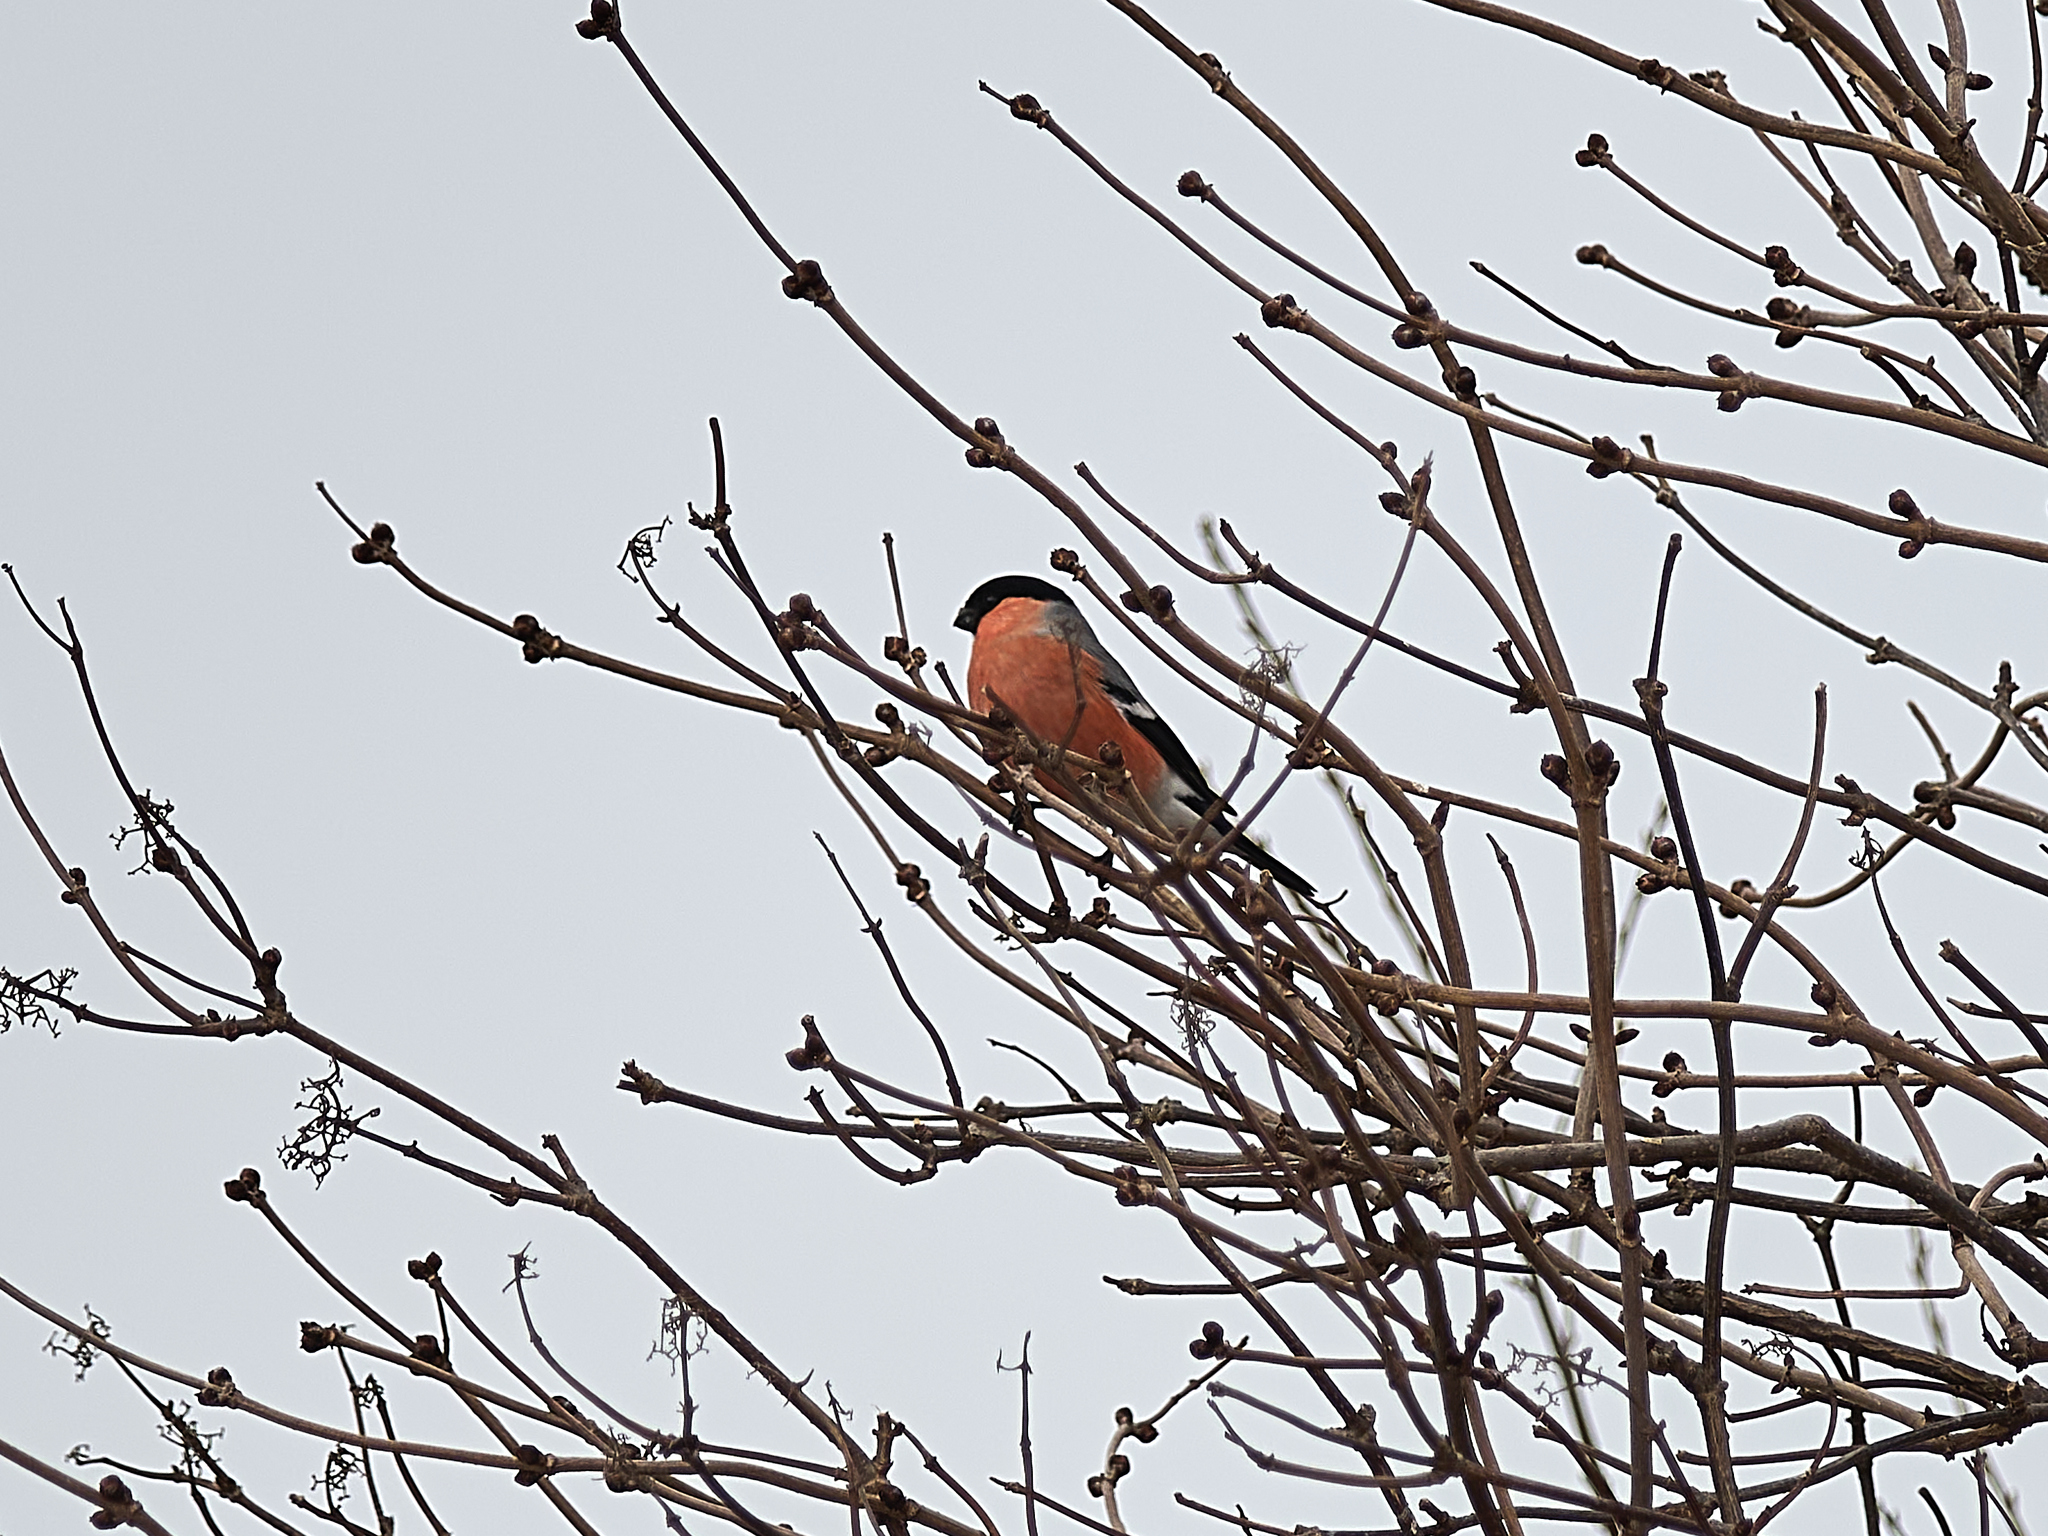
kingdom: Animalia
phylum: Chordata
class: Aves
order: Passeriformes
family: Fringillidae
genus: Pyrrhula
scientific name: Pyrrhula pyrrhula
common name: Eurasian bullfinch
